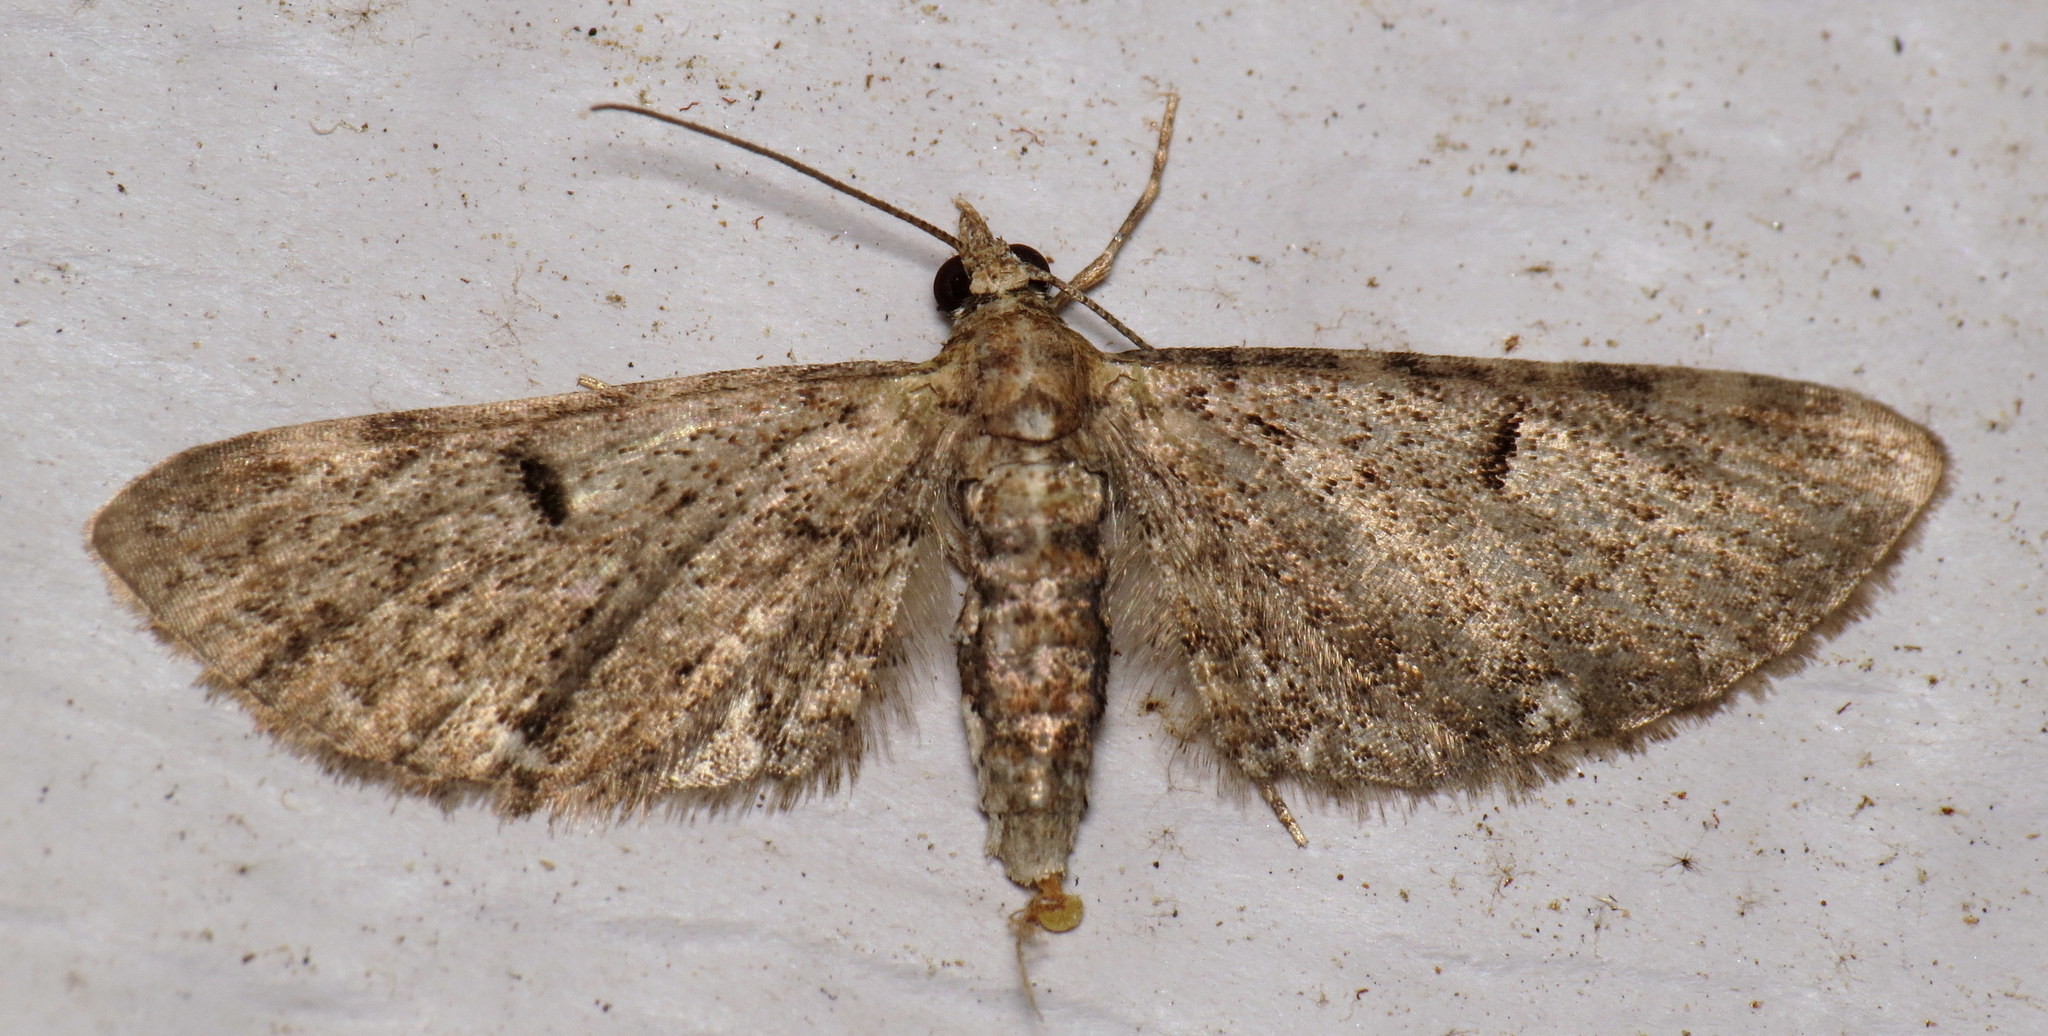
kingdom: Animalia
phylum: Arthropoda
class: Insecta
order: Lepidoptera
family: Geometridae
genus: Eupithecia
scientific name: Eupithecia miserulata
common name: Common eupithecia
